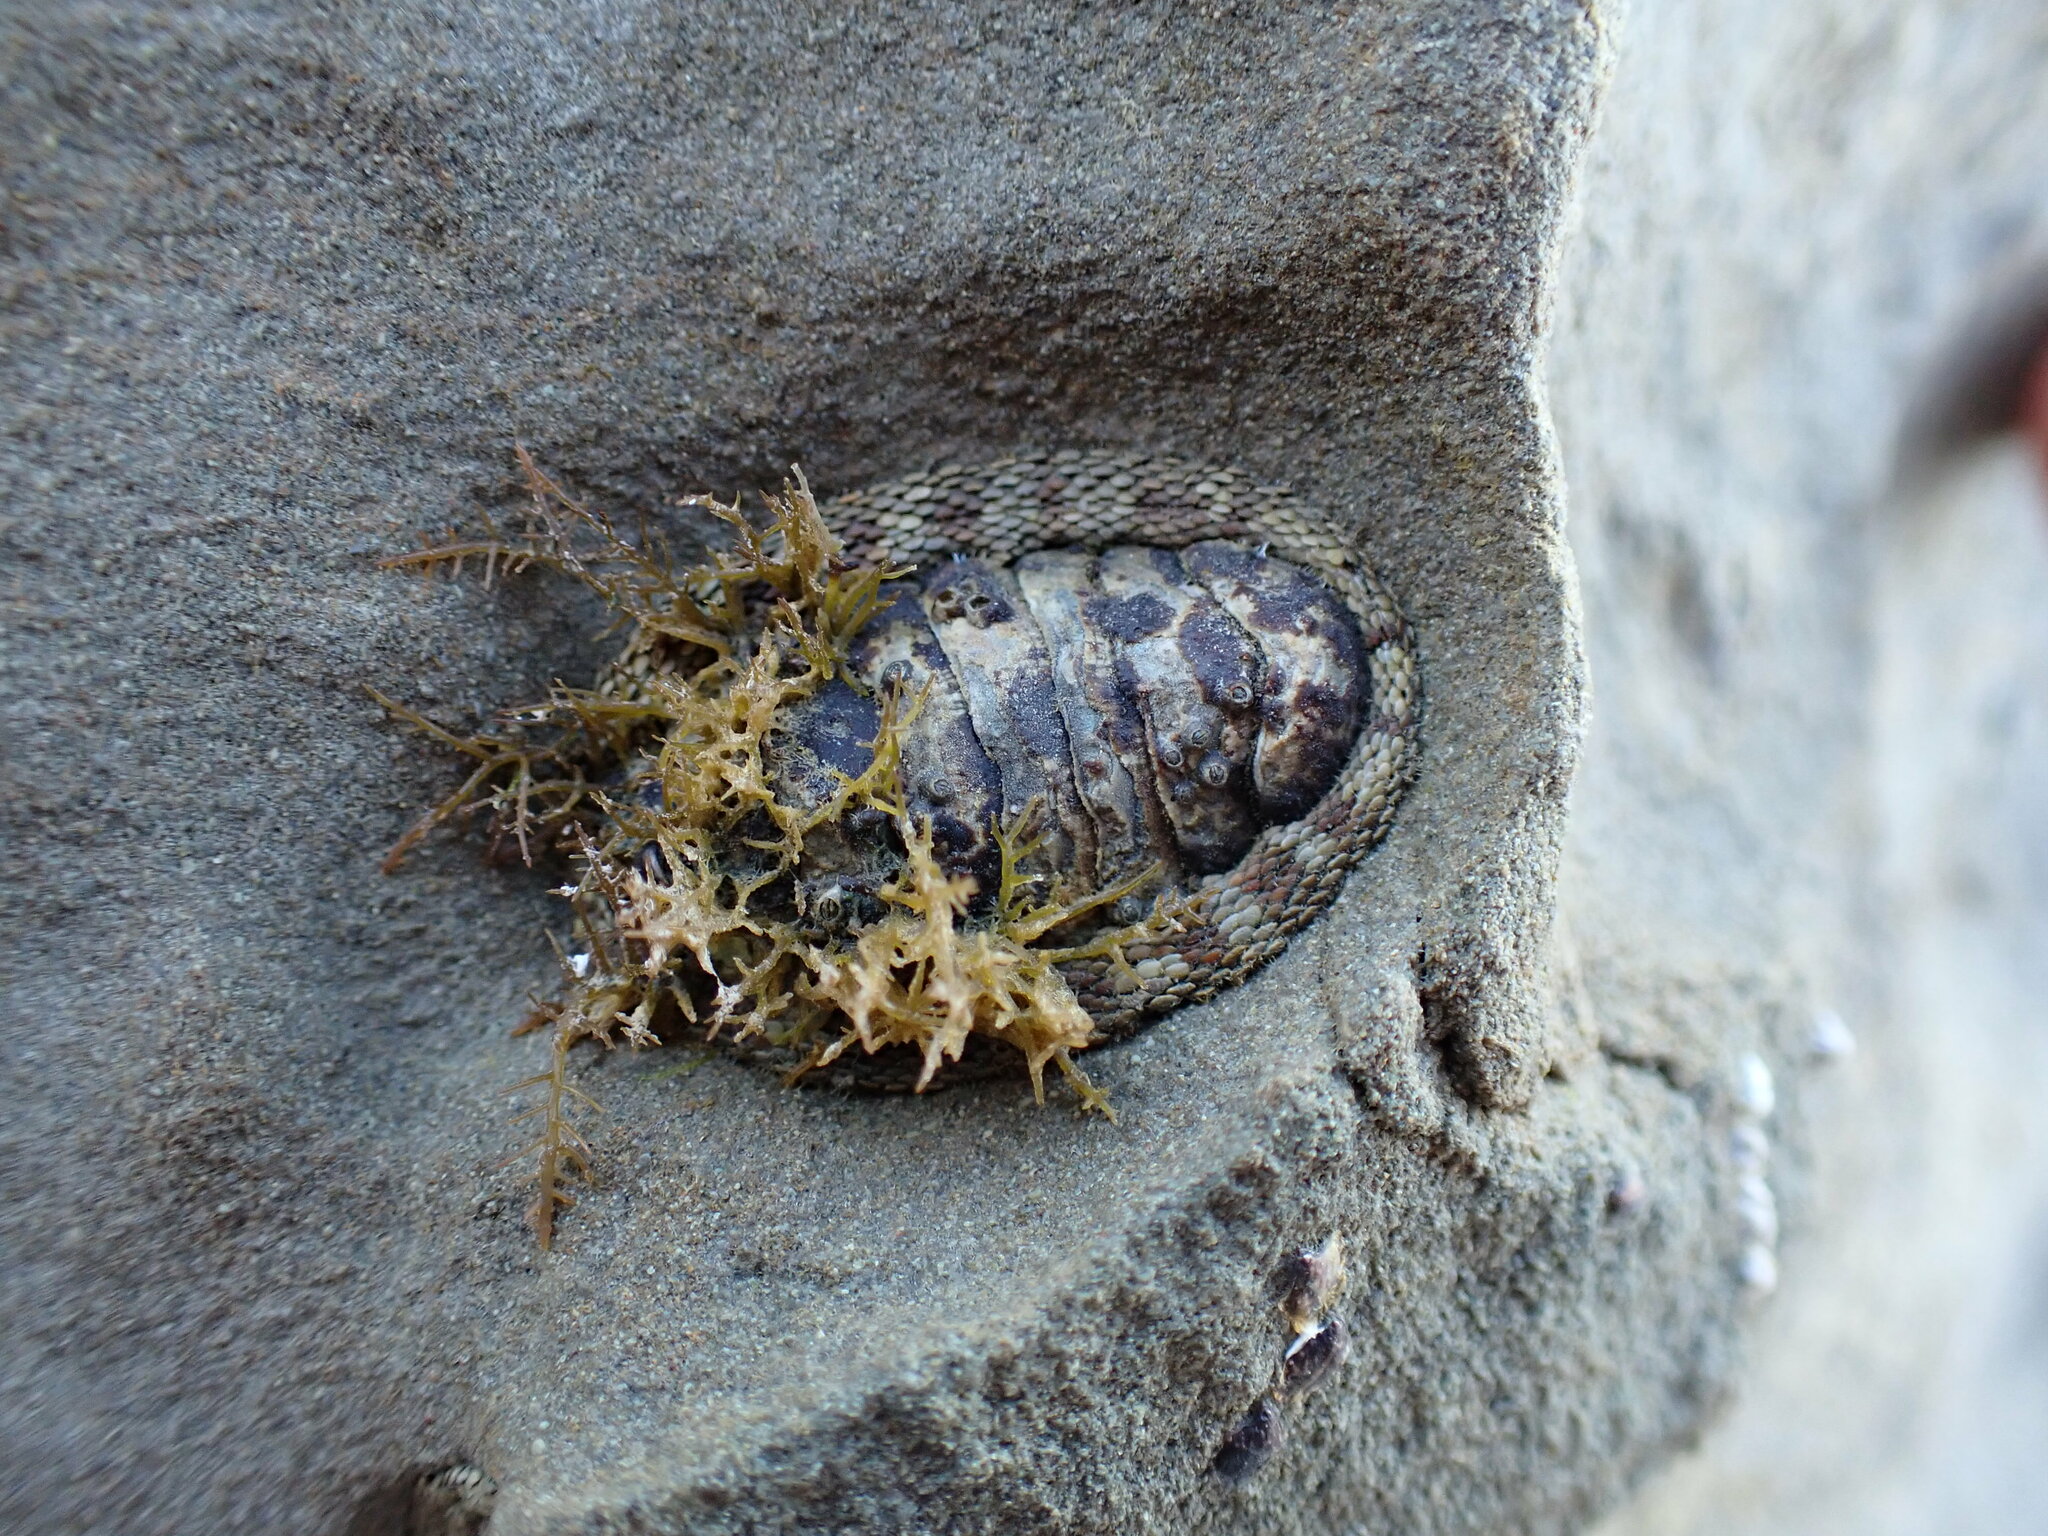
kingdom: Animalia
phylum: Mollusca
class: Polyplacophora
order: Chitonida
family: Chitonidae
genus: Sypharochiton
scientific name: Sypharochiton pelliserpentis
